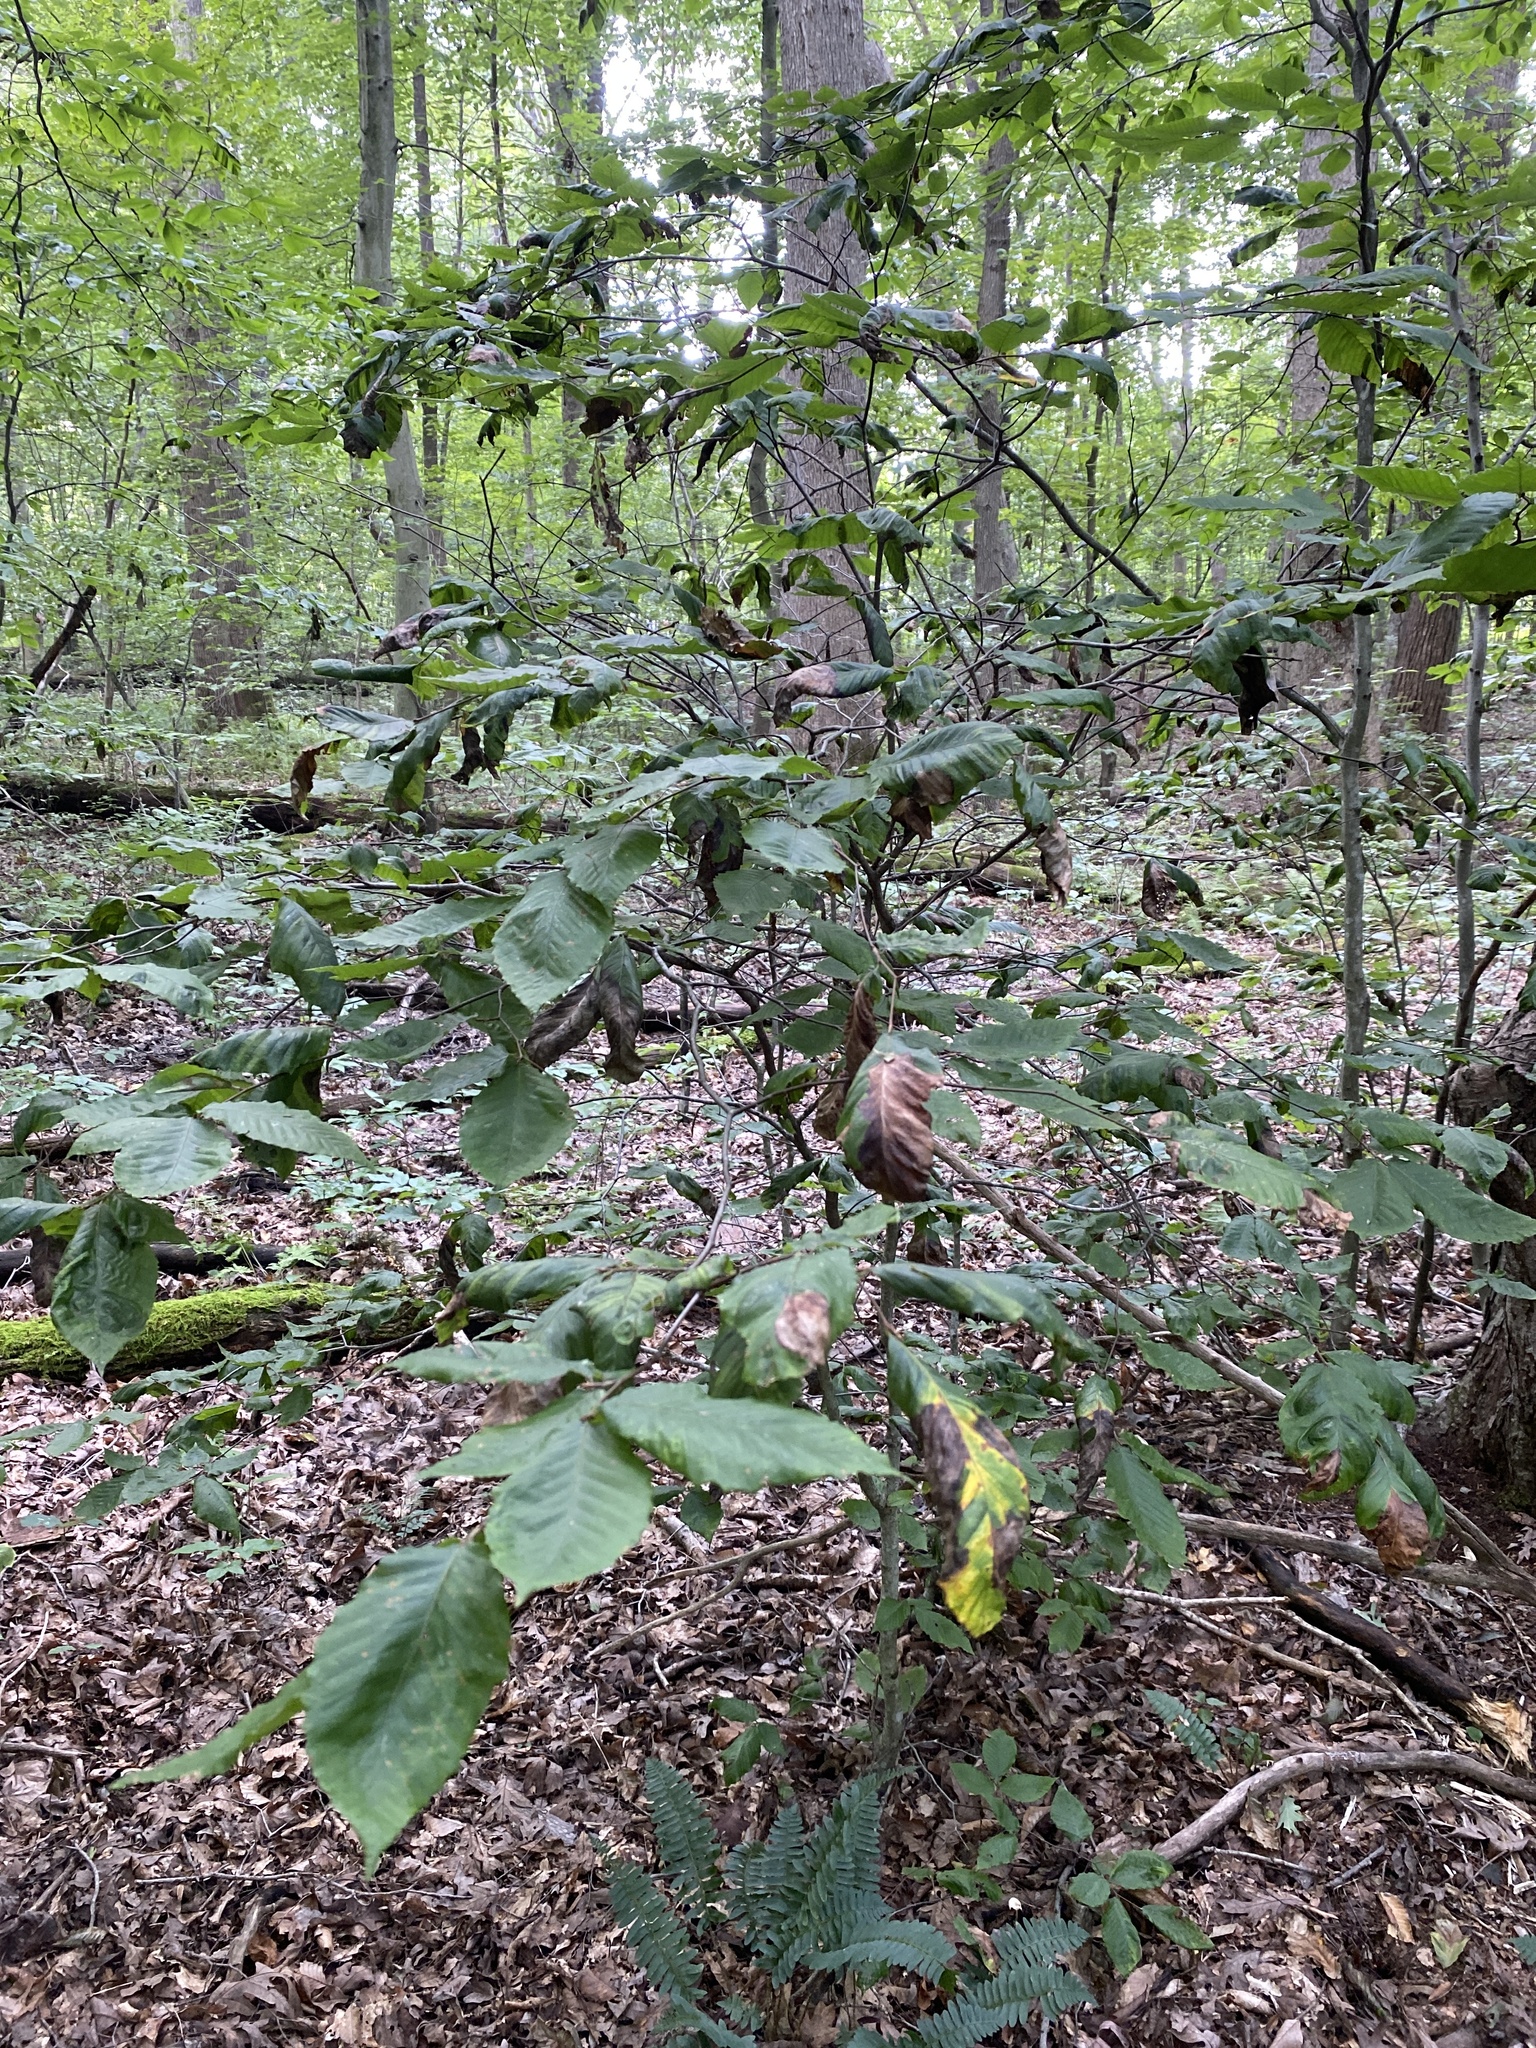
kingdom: Animalia
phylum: Nematoda
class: Chromadorea
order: Rhabditida
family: Anguinidae
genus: Litylenchus
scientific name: Litylenchus crenatae
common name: Beech leaf disease
